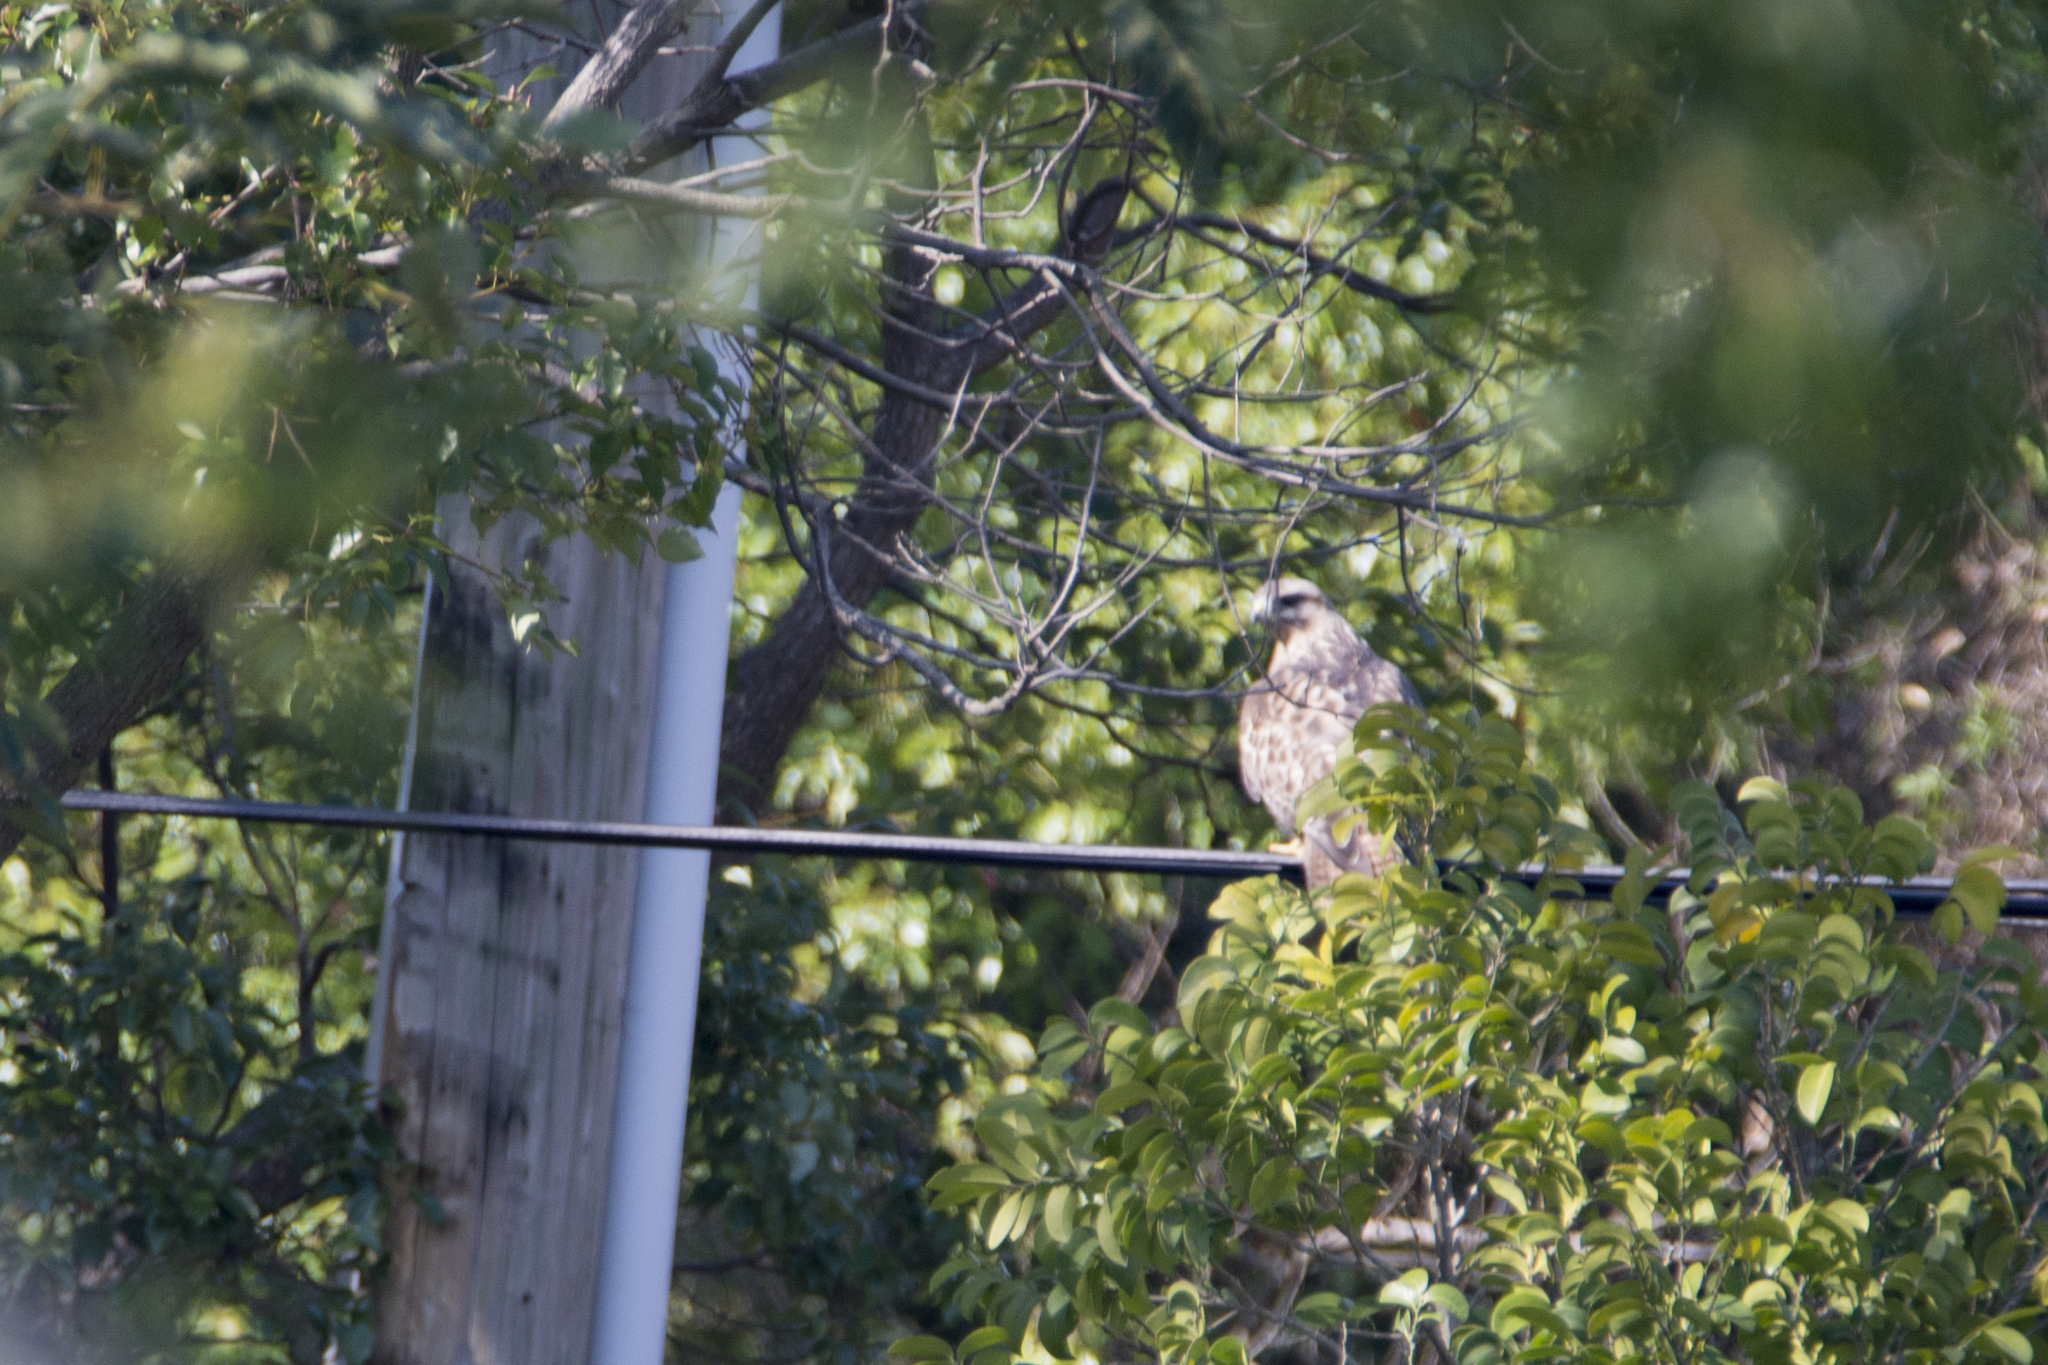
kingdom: Animalia
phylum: Chordata
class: Aves
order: Accipitriformes
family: Accipitridae
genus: Buteo
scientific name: Buteo japonicus
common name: Eastern buzzard
